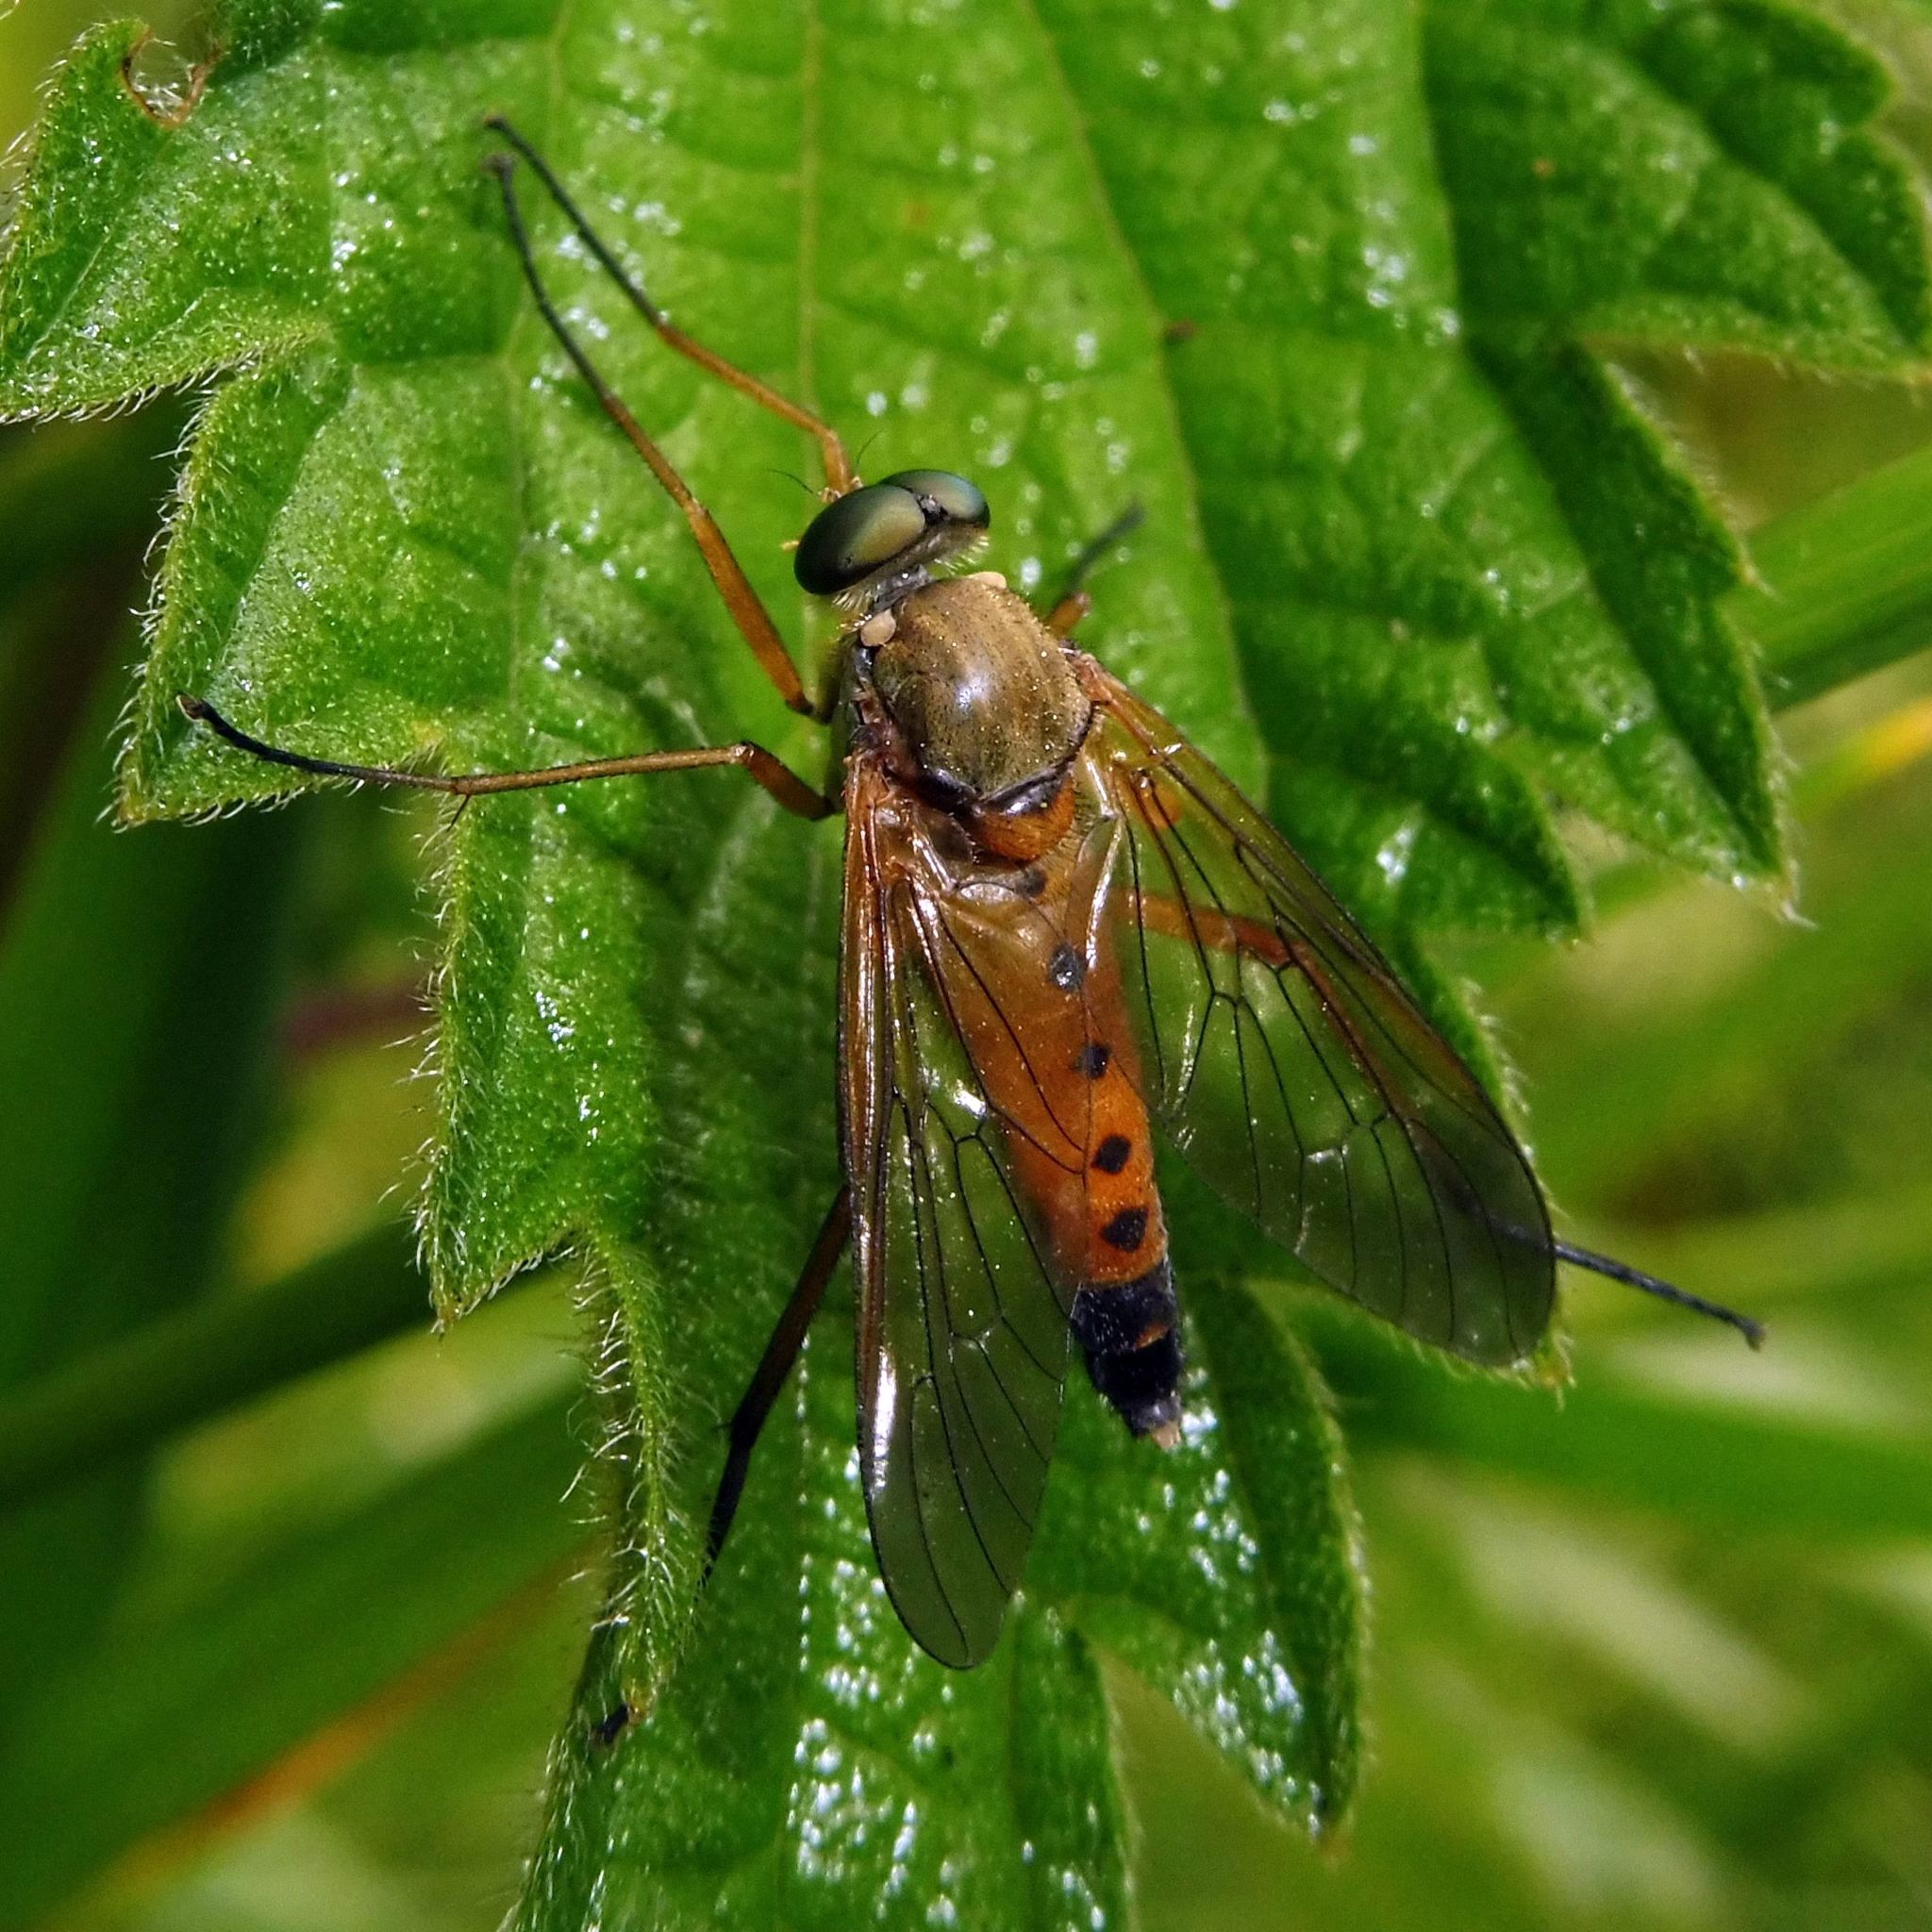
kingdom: Animalia
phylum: Arthropoda
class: Insecta
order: Diptera
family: Rhagionidae
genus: Rhagio
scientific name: Rhagio tringaria
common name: Marsh snipefly
